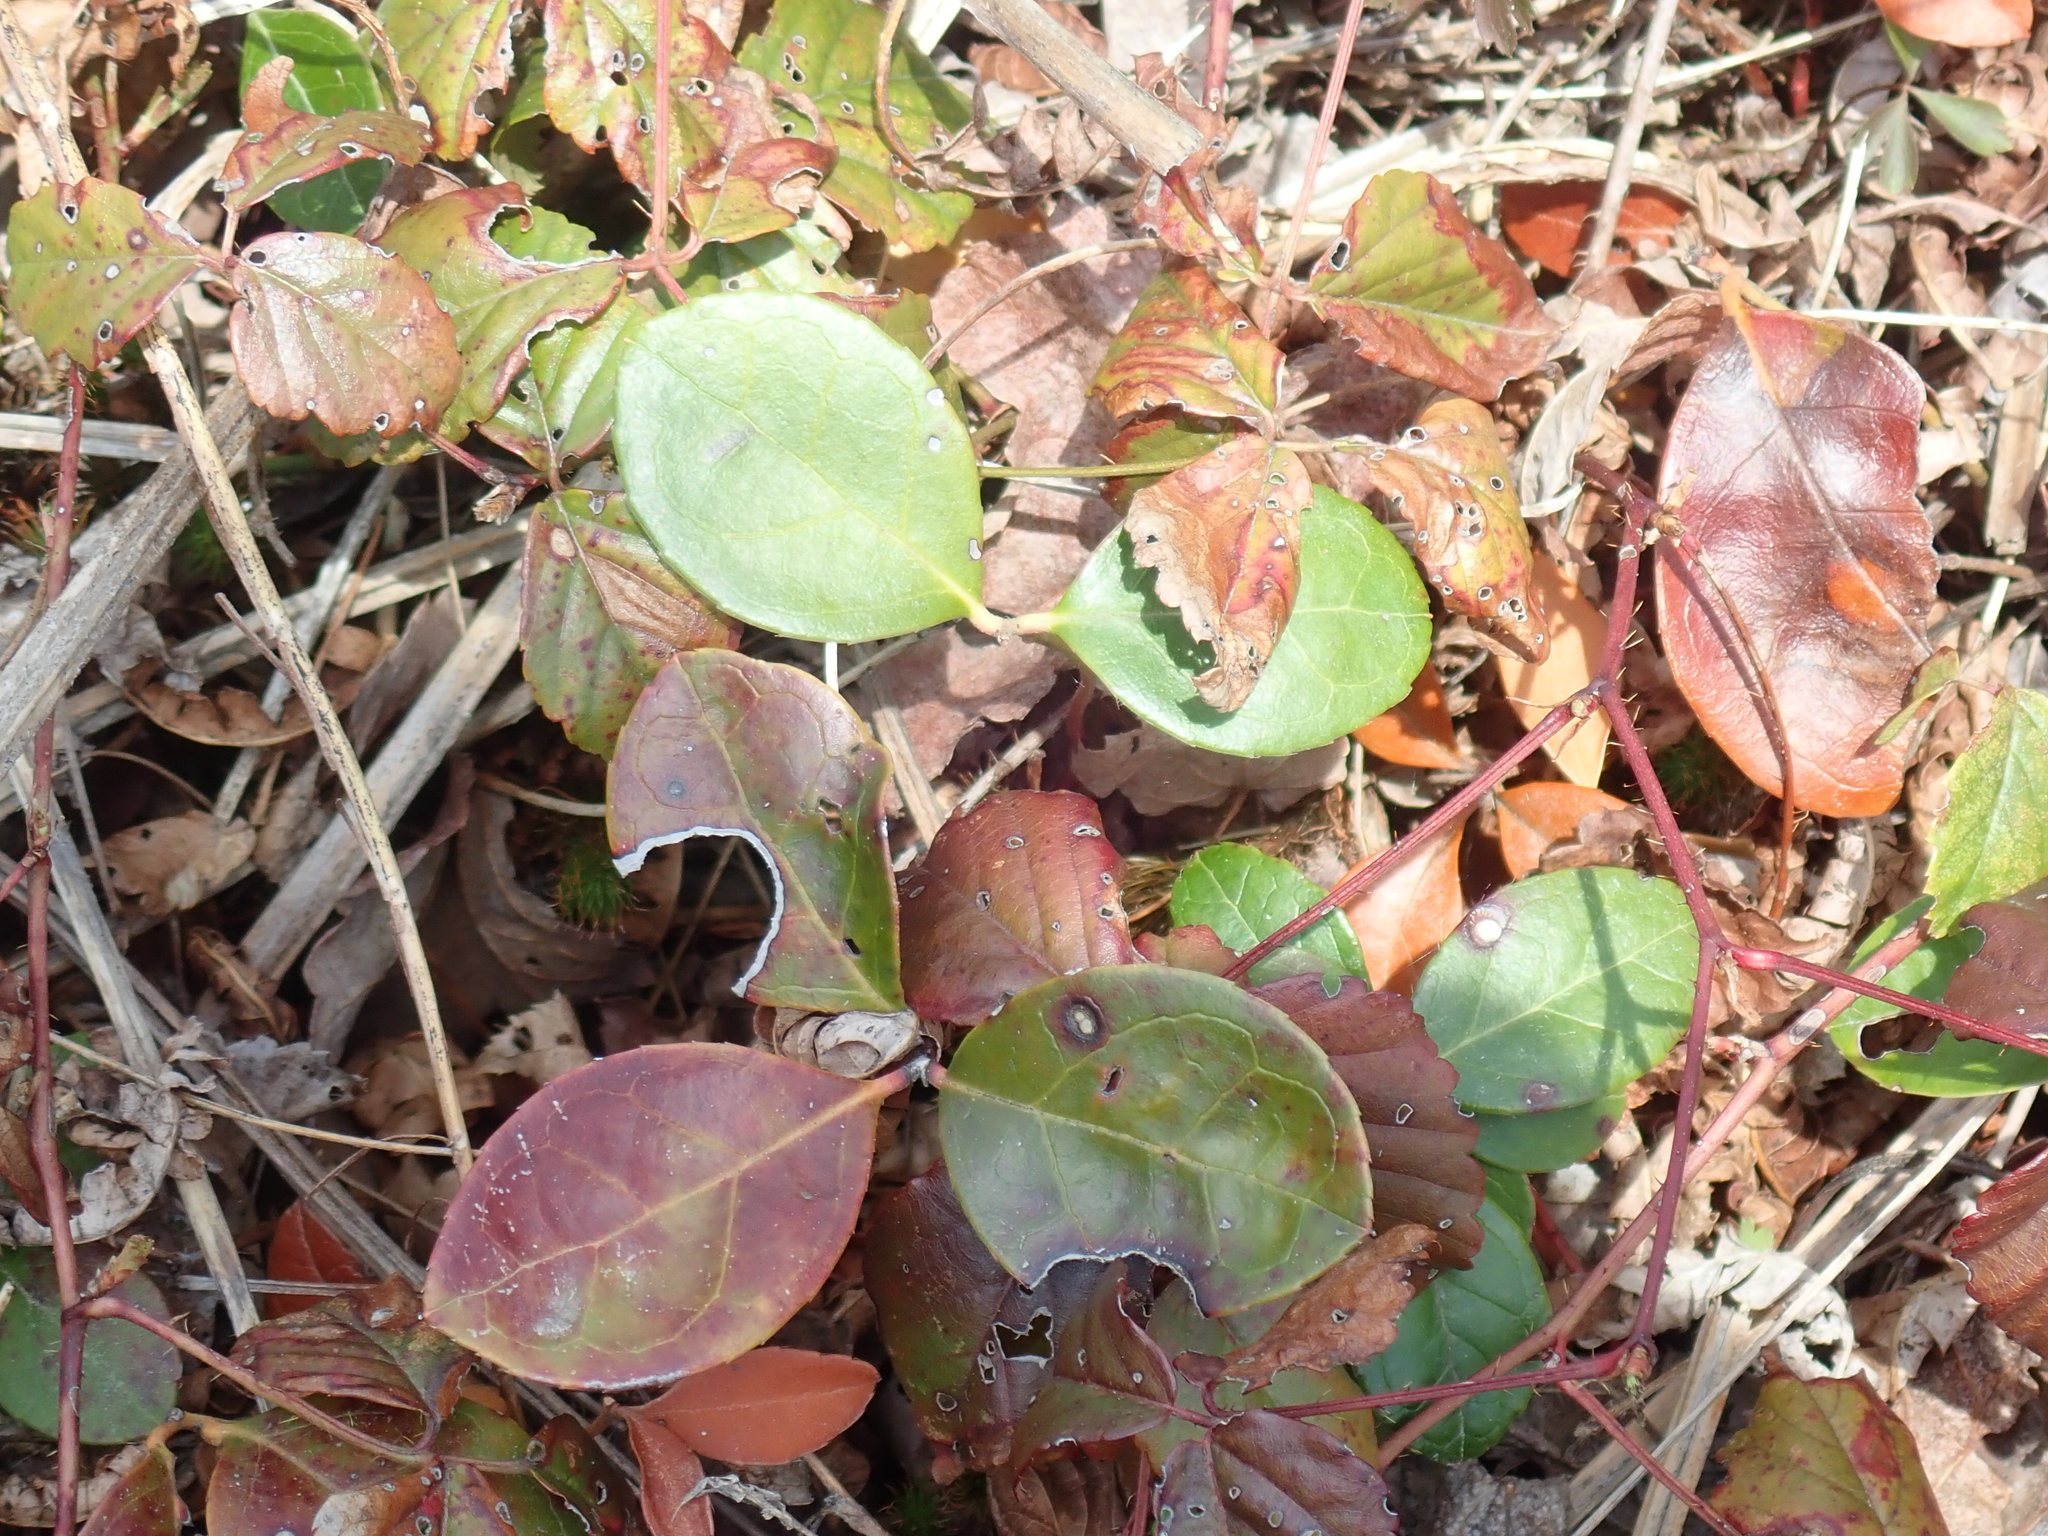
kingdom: Plantae
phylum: Tracheophyta
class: Magnoliopsida
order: Ericales
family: Ericaceae
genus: Gaultheria
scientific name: Gaultheria procumbens
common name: Checkerberry
